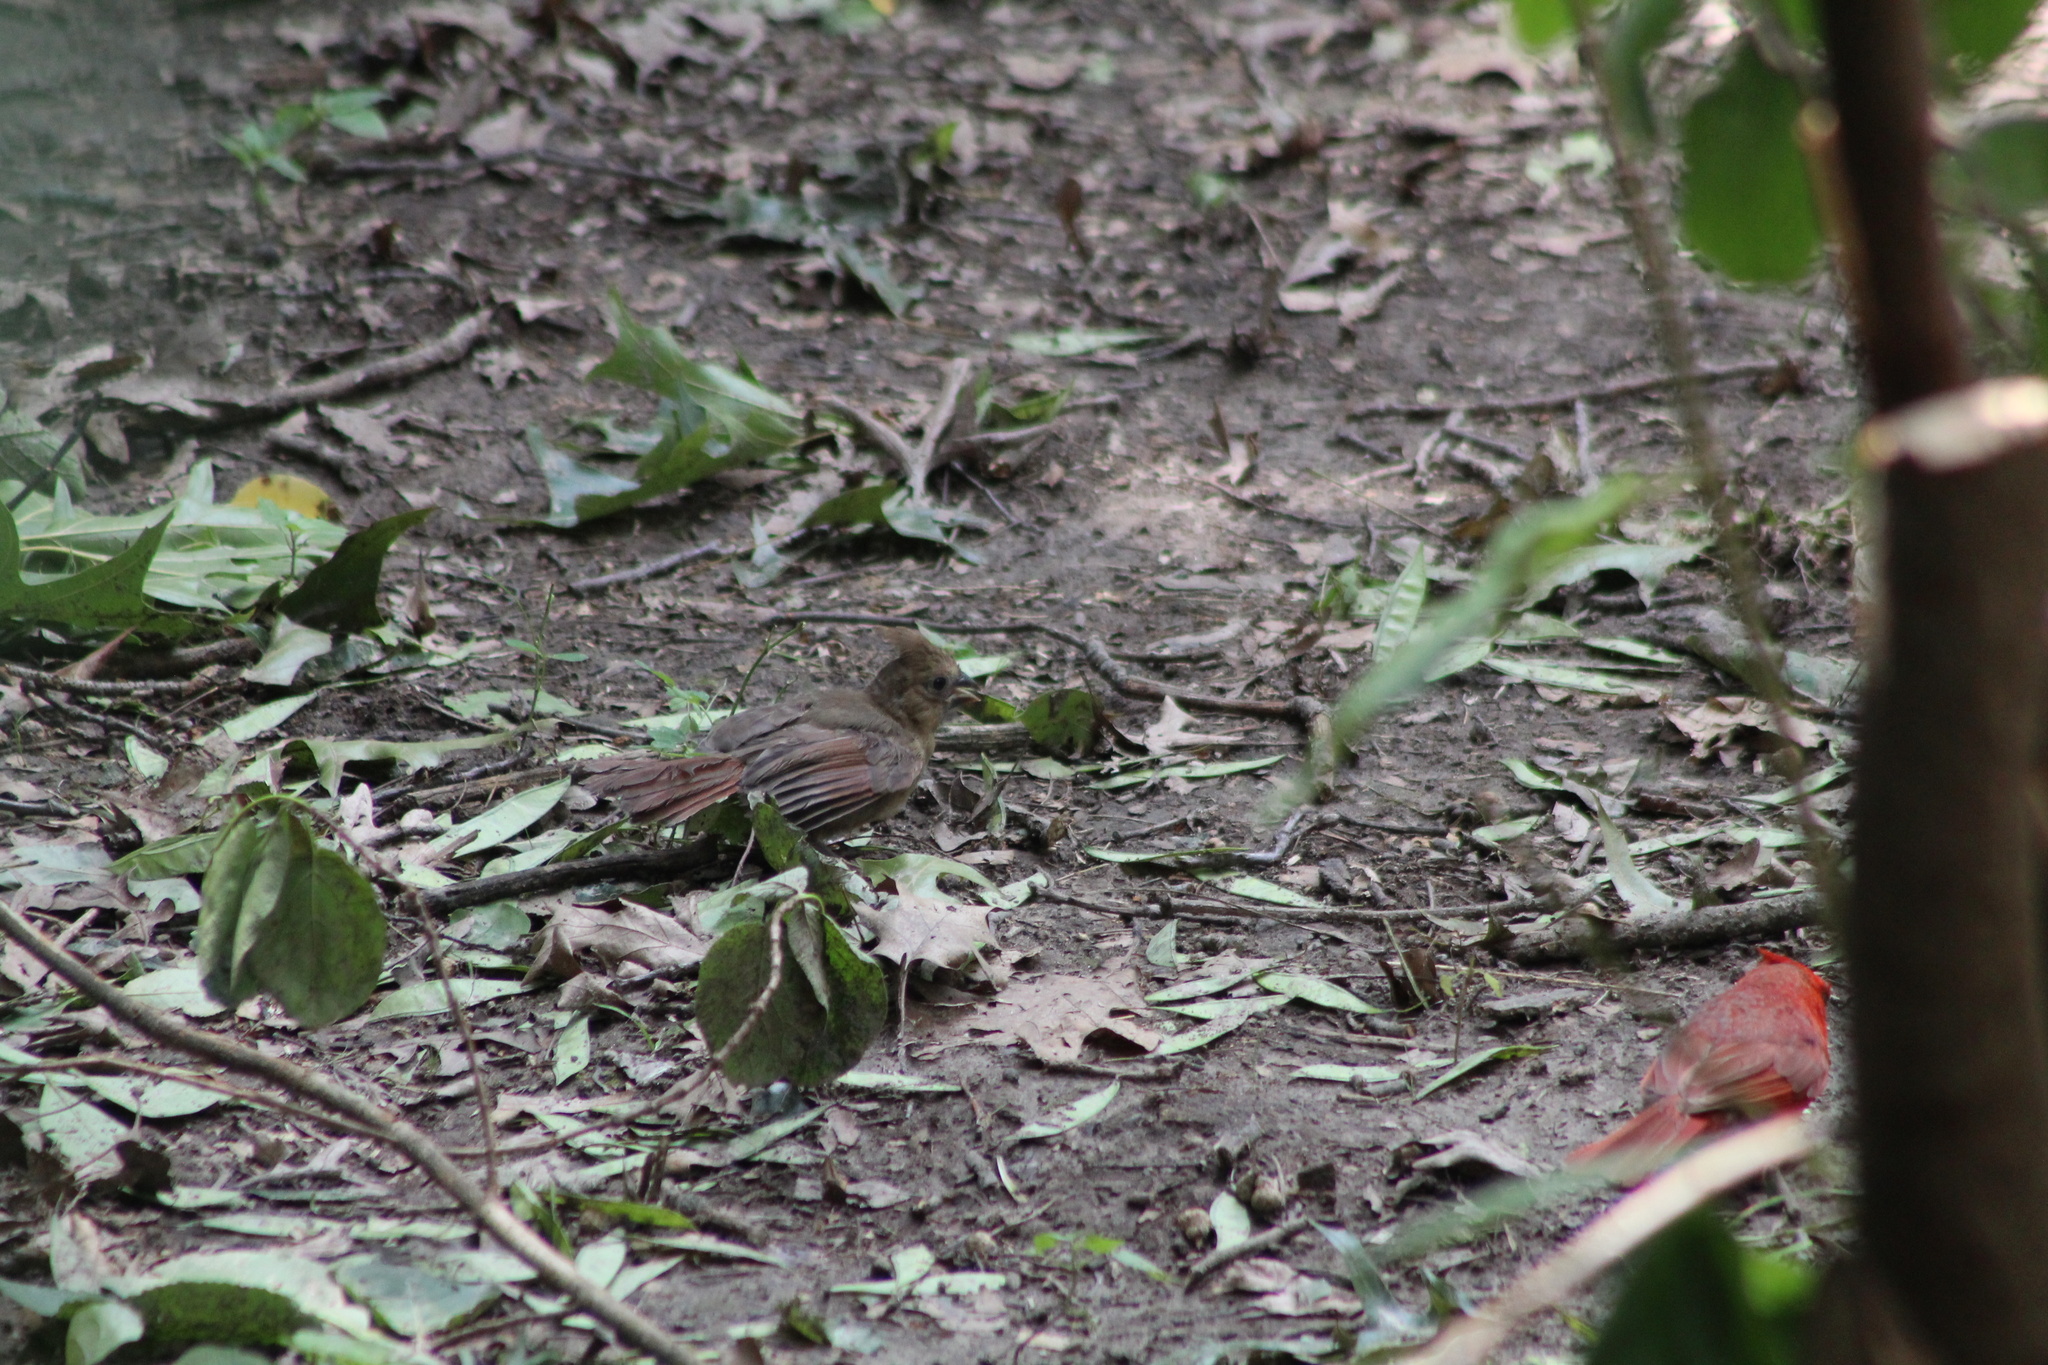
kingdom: Animalia
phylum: Chordata
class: Aves
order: Passeriformes
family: Cardinalidae
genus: Cardinalis
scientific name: Cardinalis cardinalis
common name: Northern cardinal
